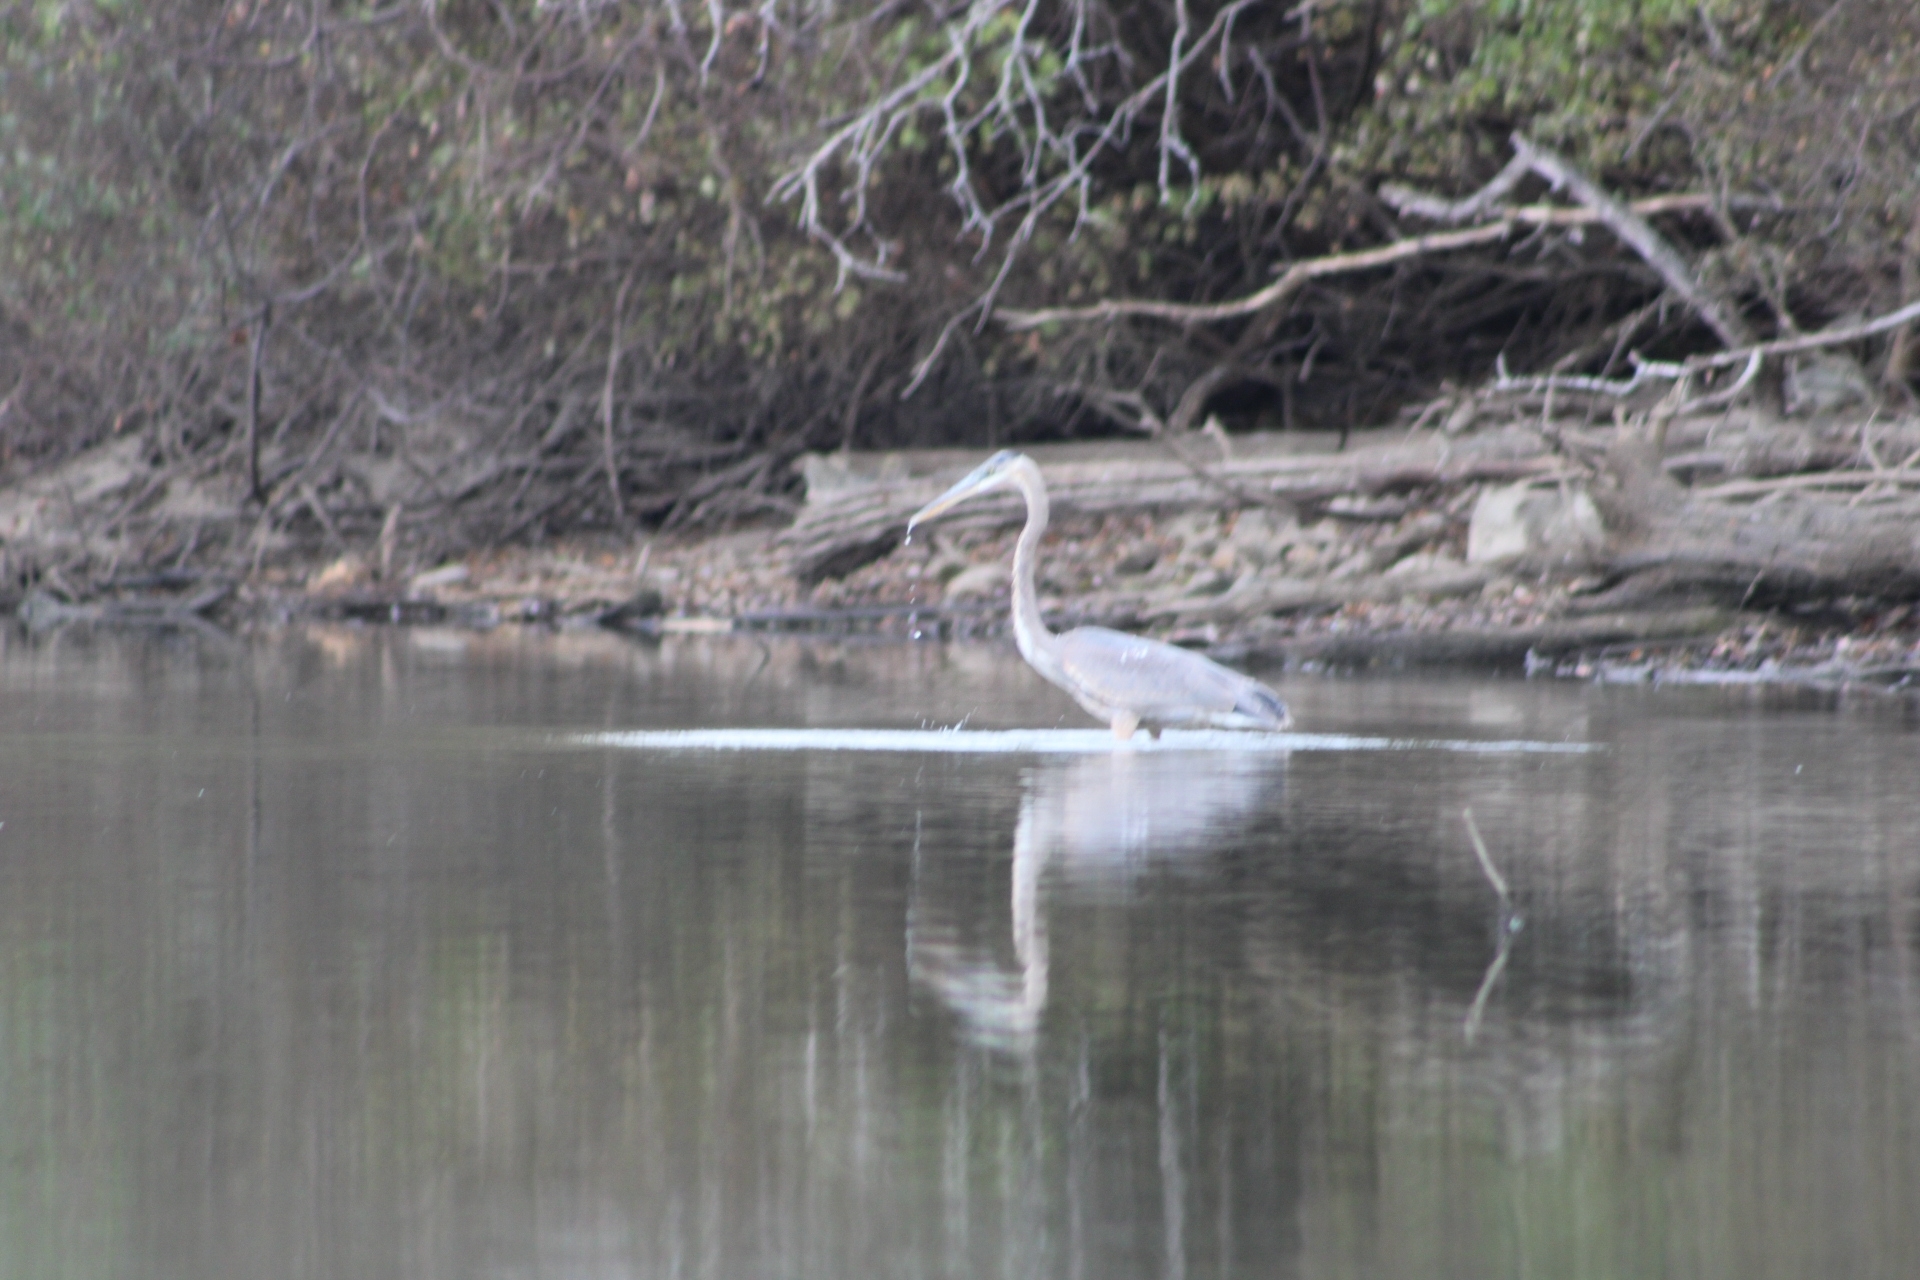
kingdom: Animalia
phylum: Chordata
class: Aves
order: Pelecaniformes
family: Ardeidae
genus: Ardea
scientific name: Ardea herodias
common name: Great blue heron
